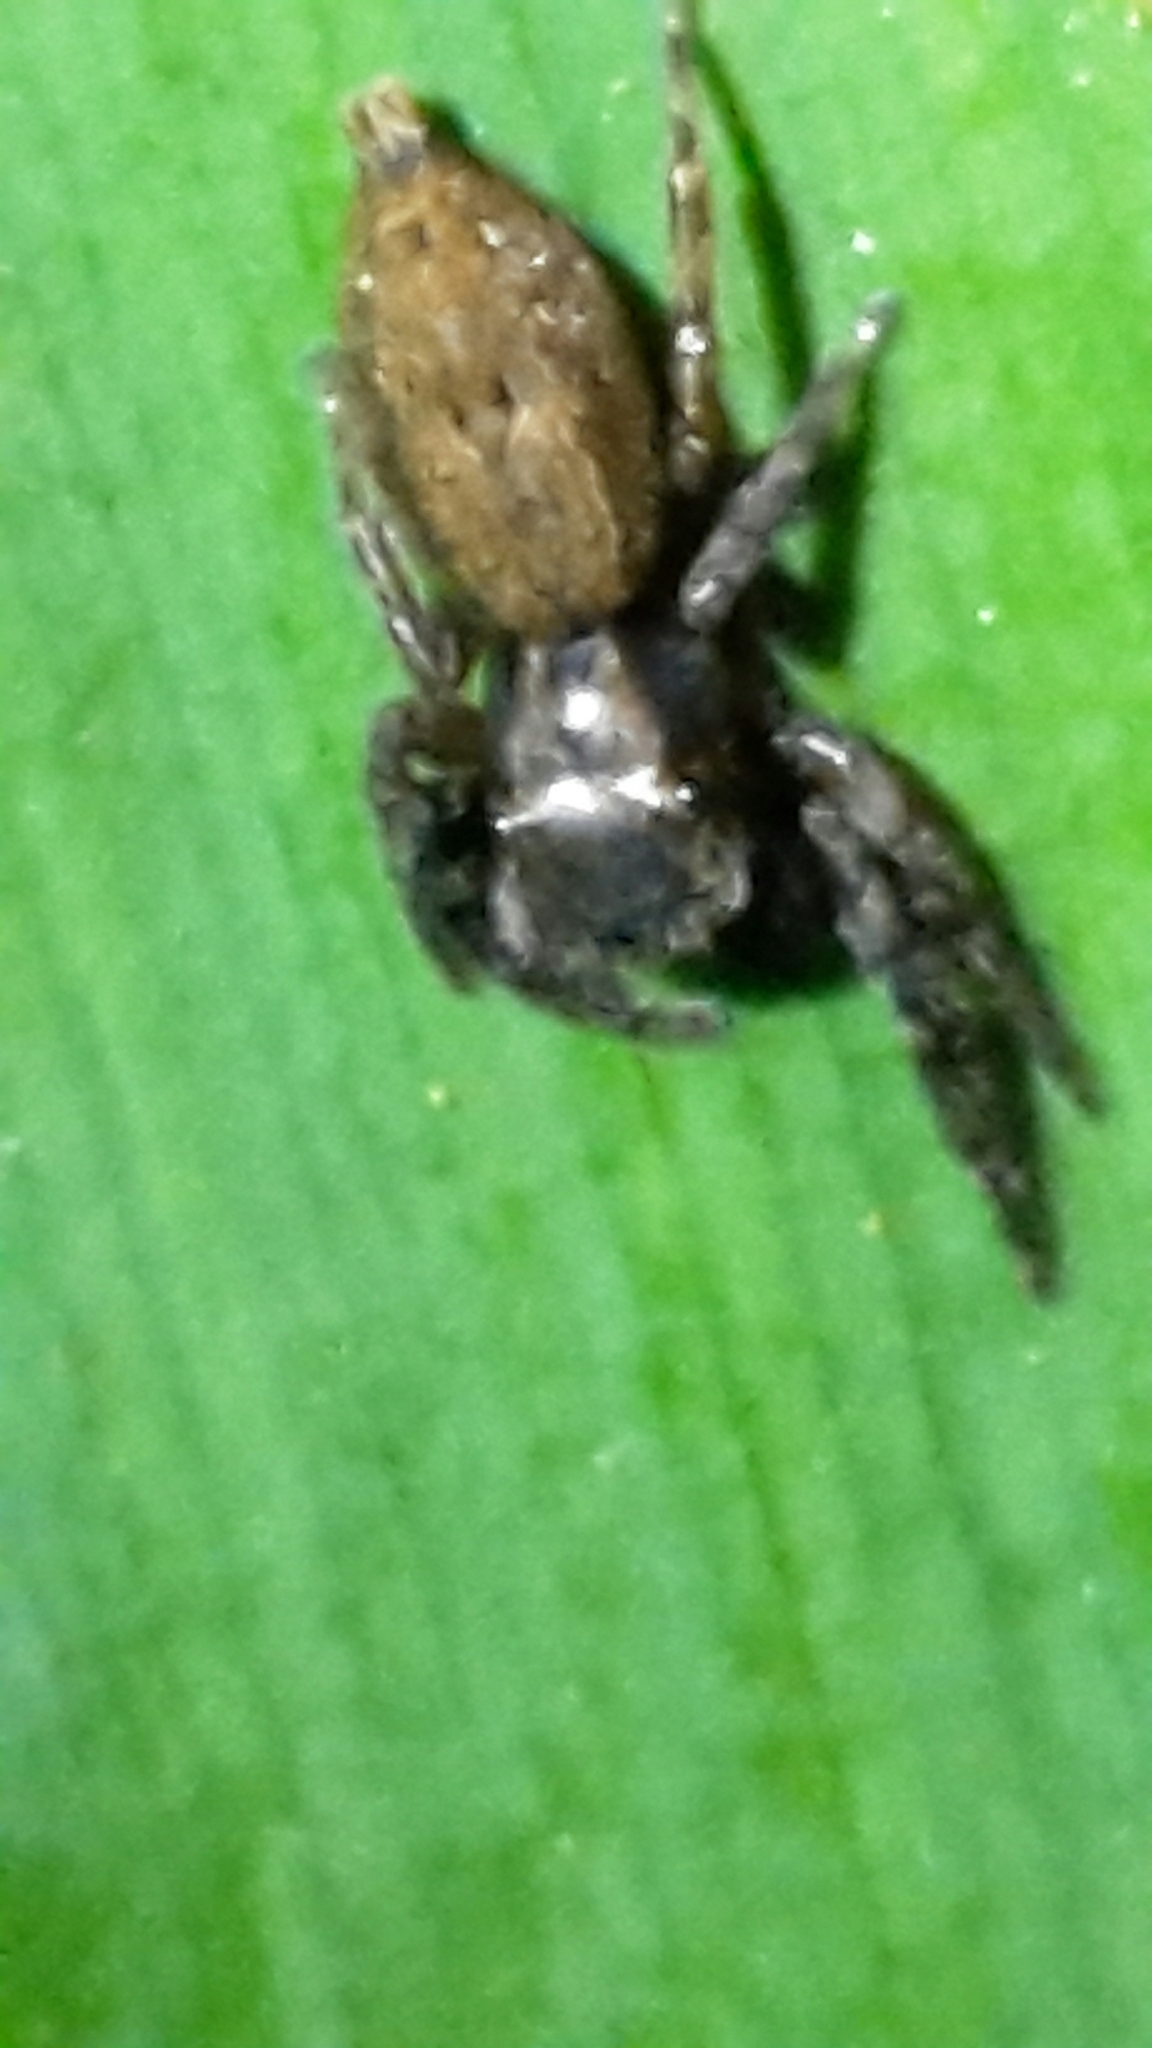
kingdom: Animalia
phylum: Arthropoda
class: Arachnida
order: Araneae
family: Salticidae
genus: Trite
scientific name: Trite auricoma
